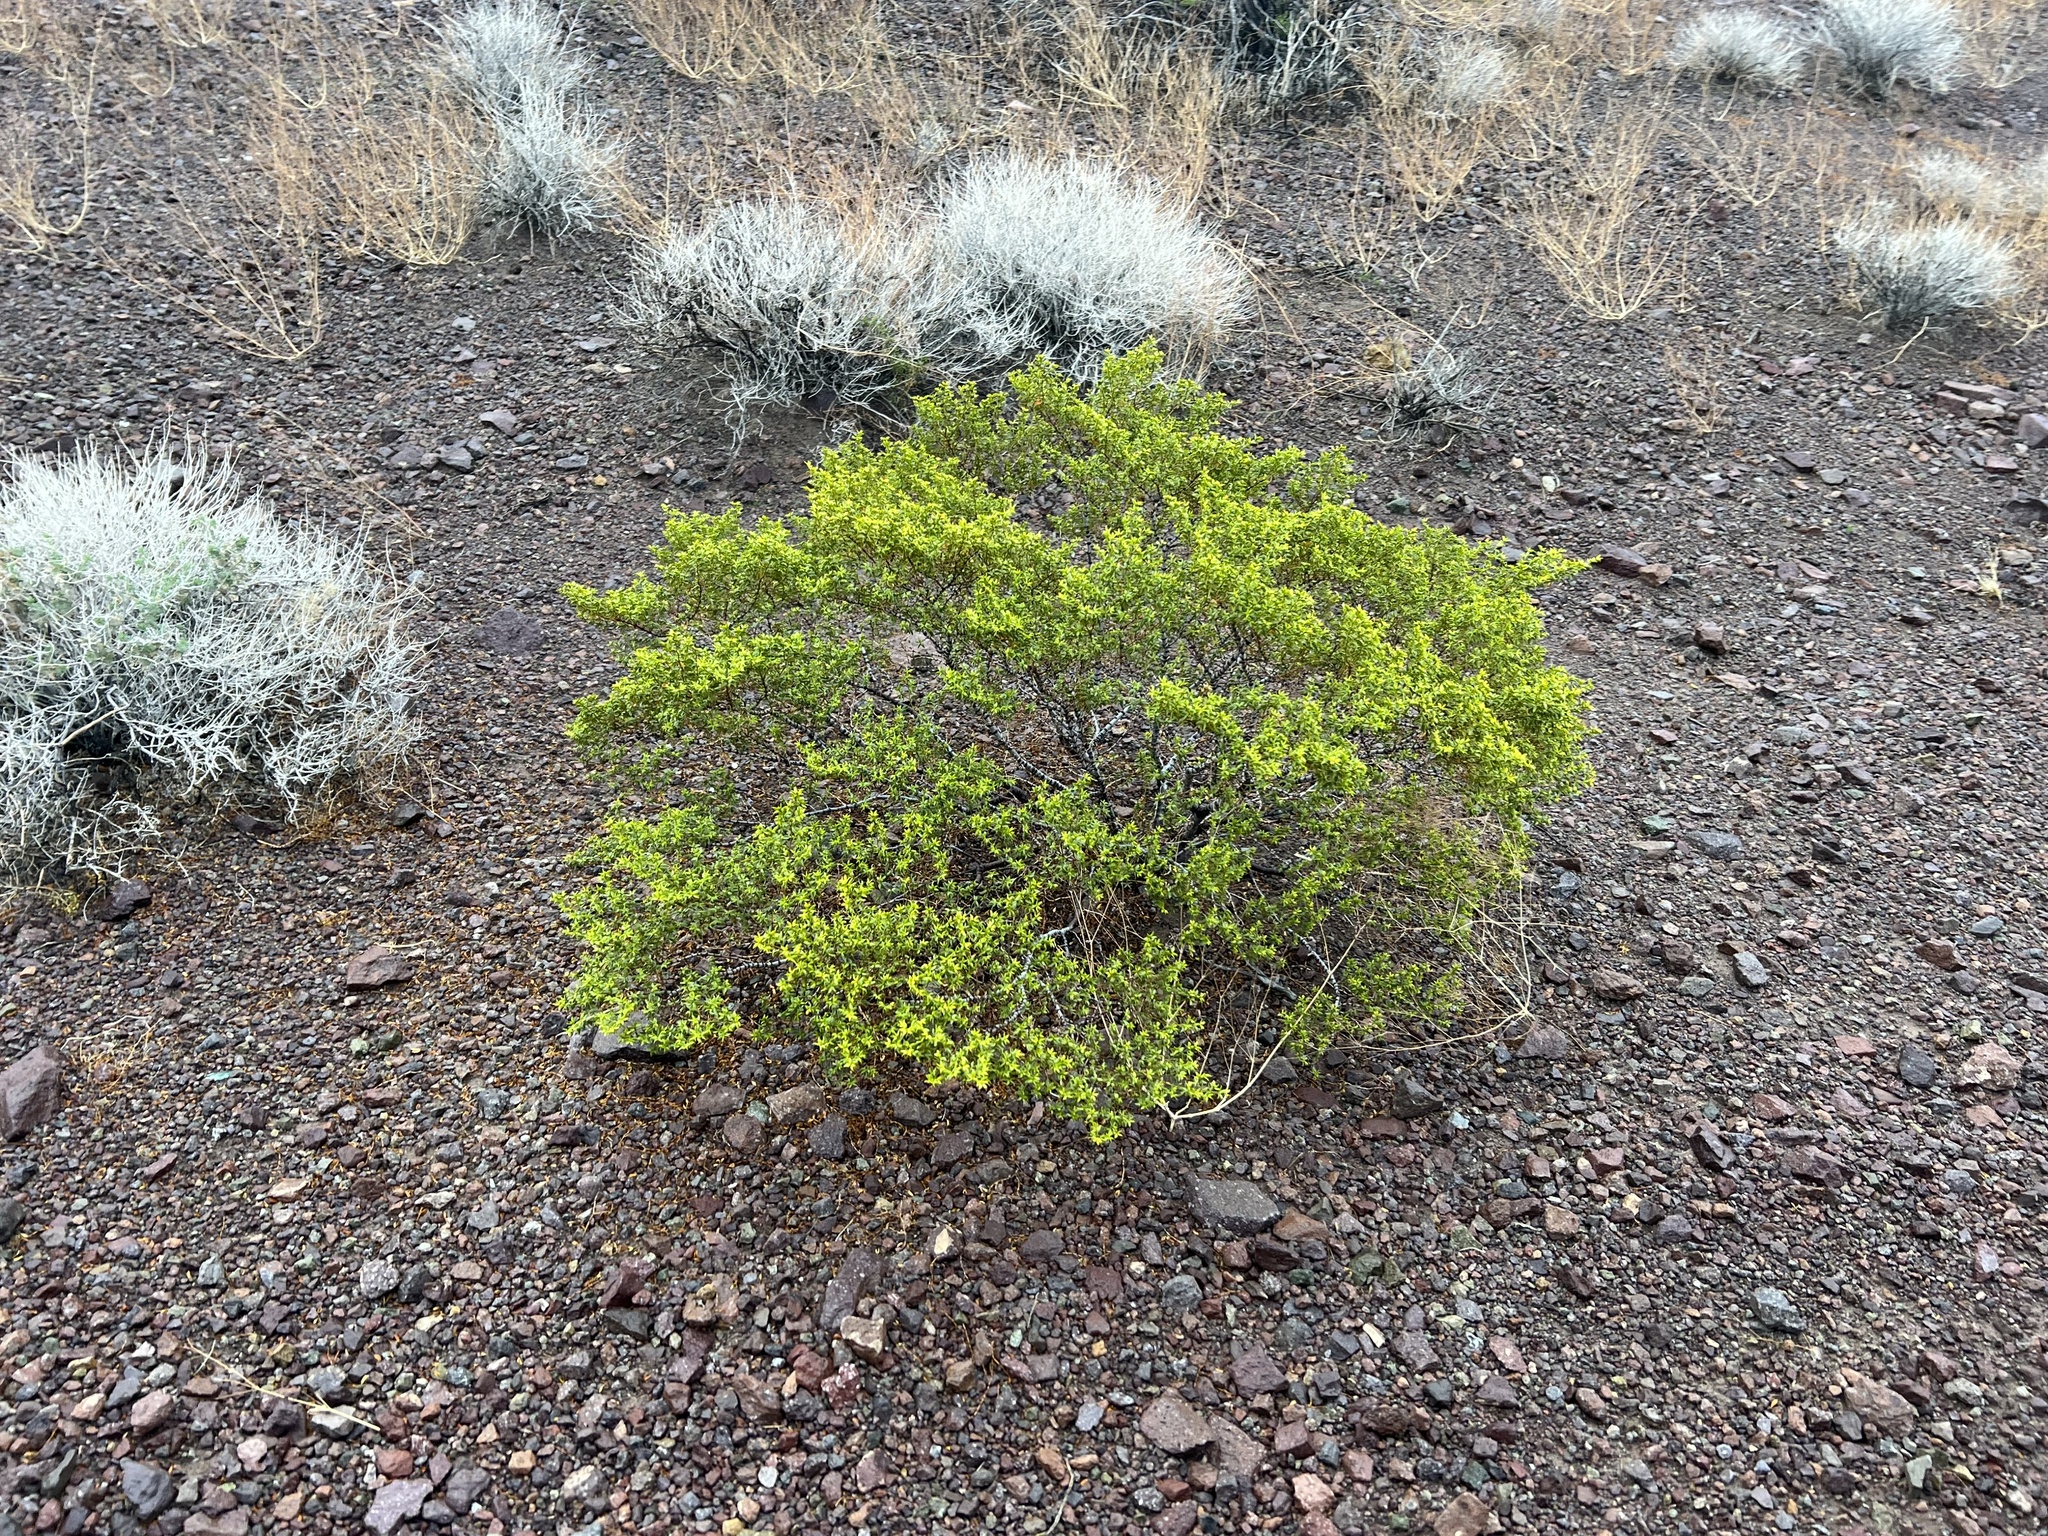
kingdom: Plantae
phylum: Tracheophyta
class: Magnoliopsida
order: Zygophyllales
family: Zygophyllaceae
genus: Larrea
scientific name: Larrea tridentata
